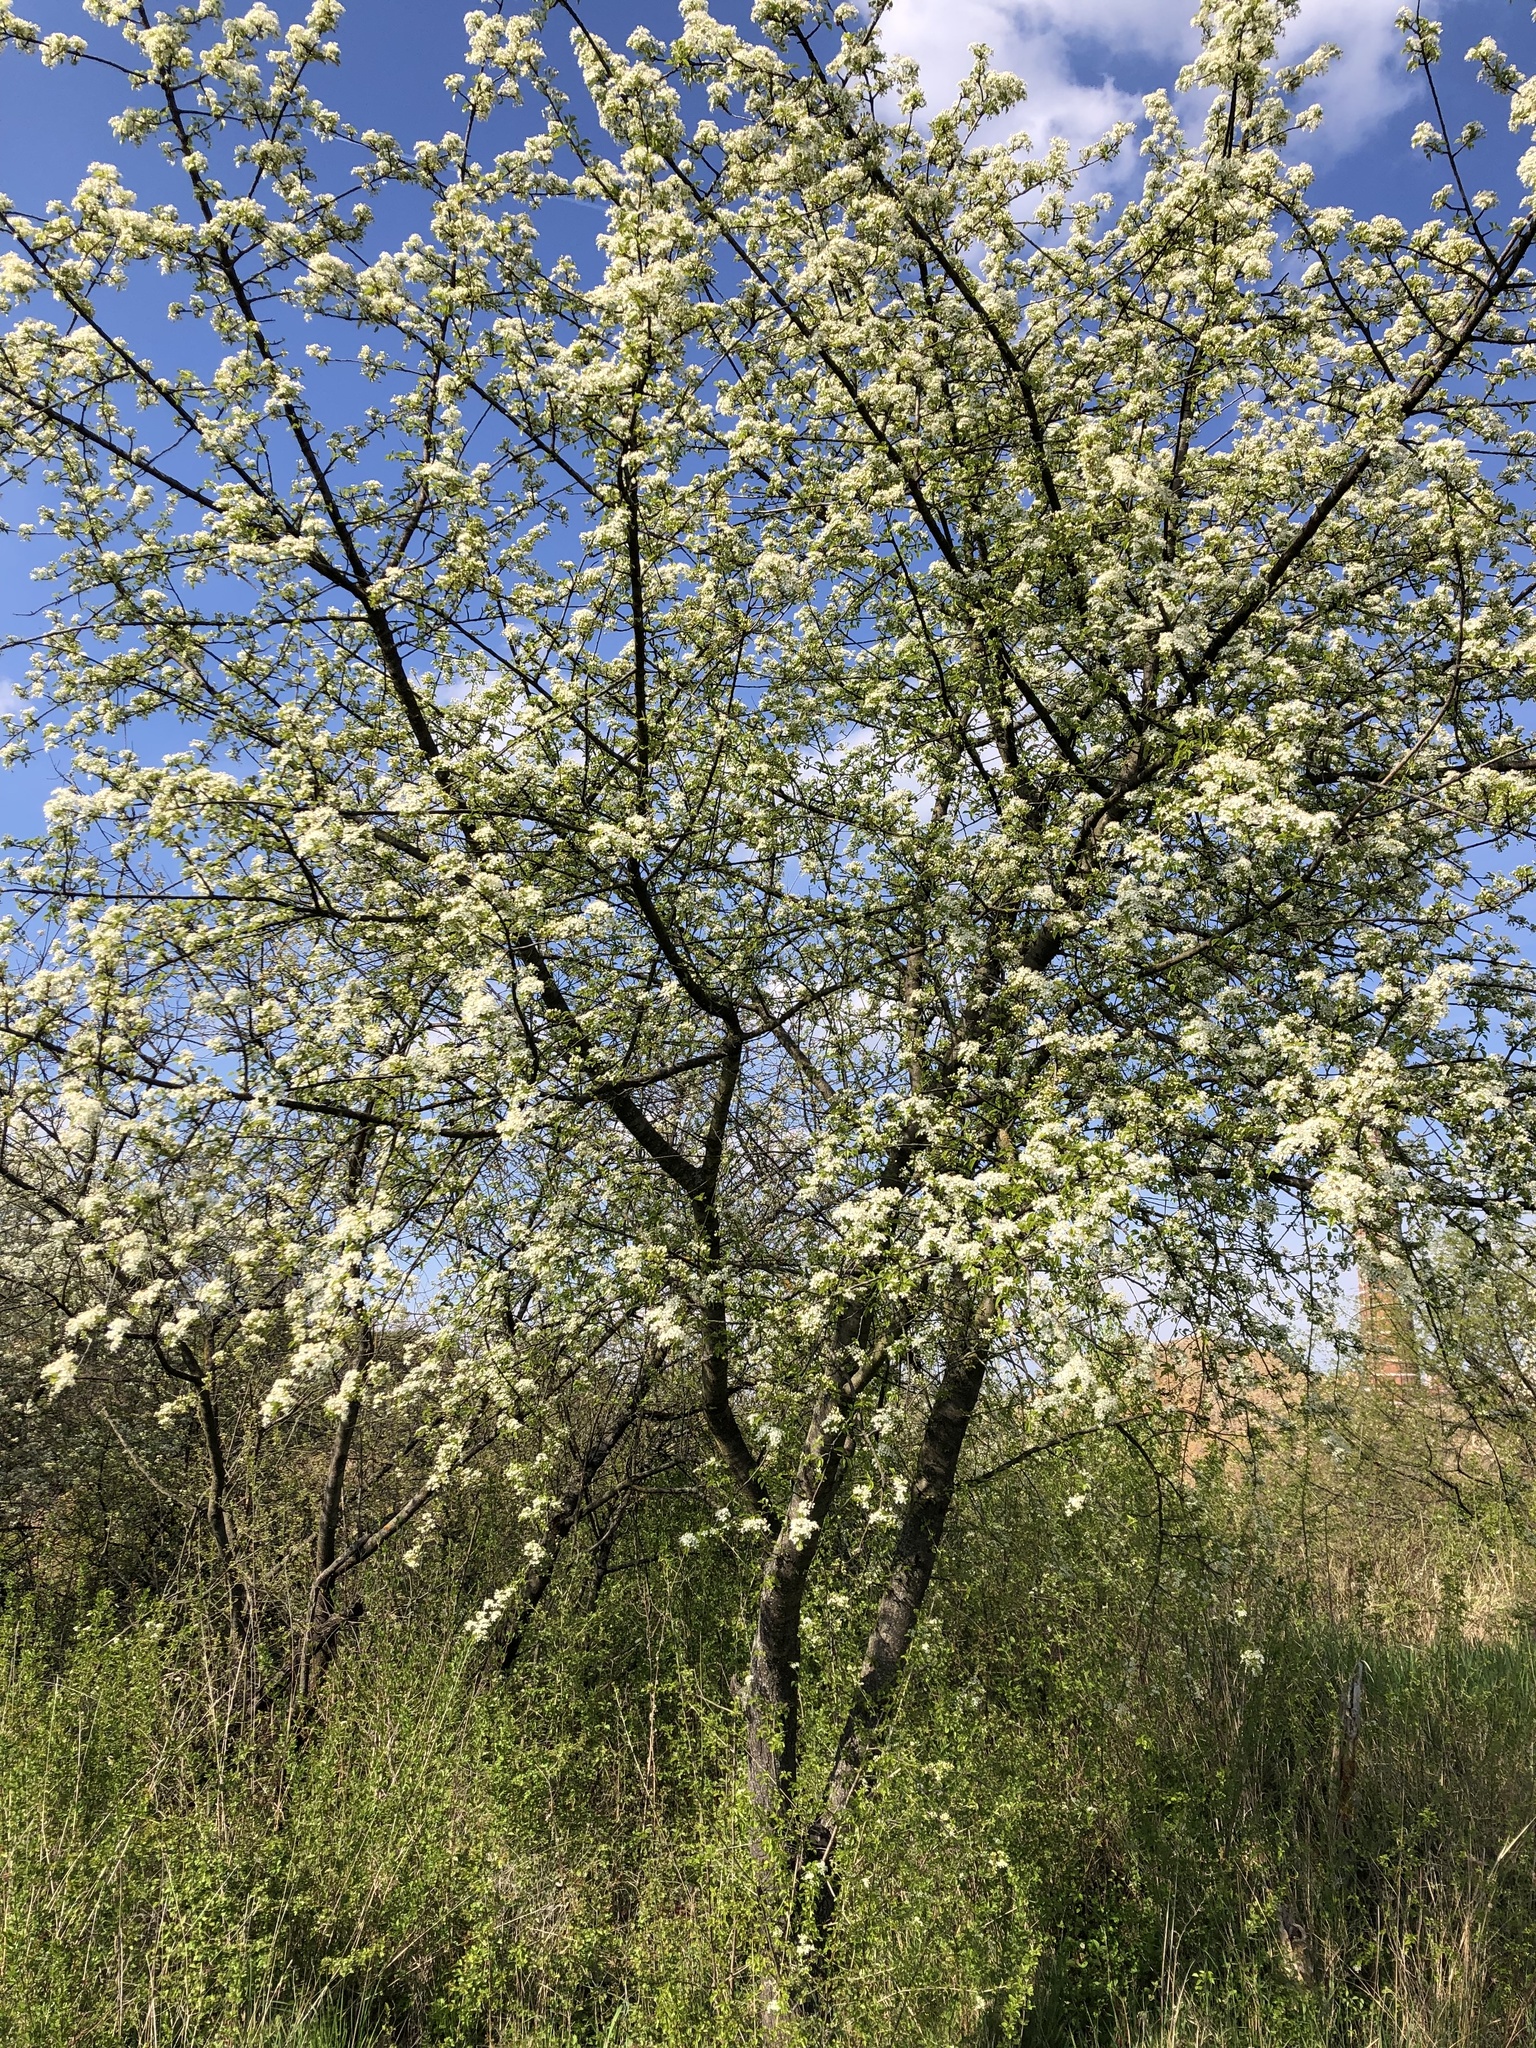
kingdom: Plantae
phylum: Tracheophyta
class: Magnoliopsida
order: Rosales
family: Rosaceae
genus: Prunus
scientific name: Prunus mahaleb
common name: Mahaleb cherry
